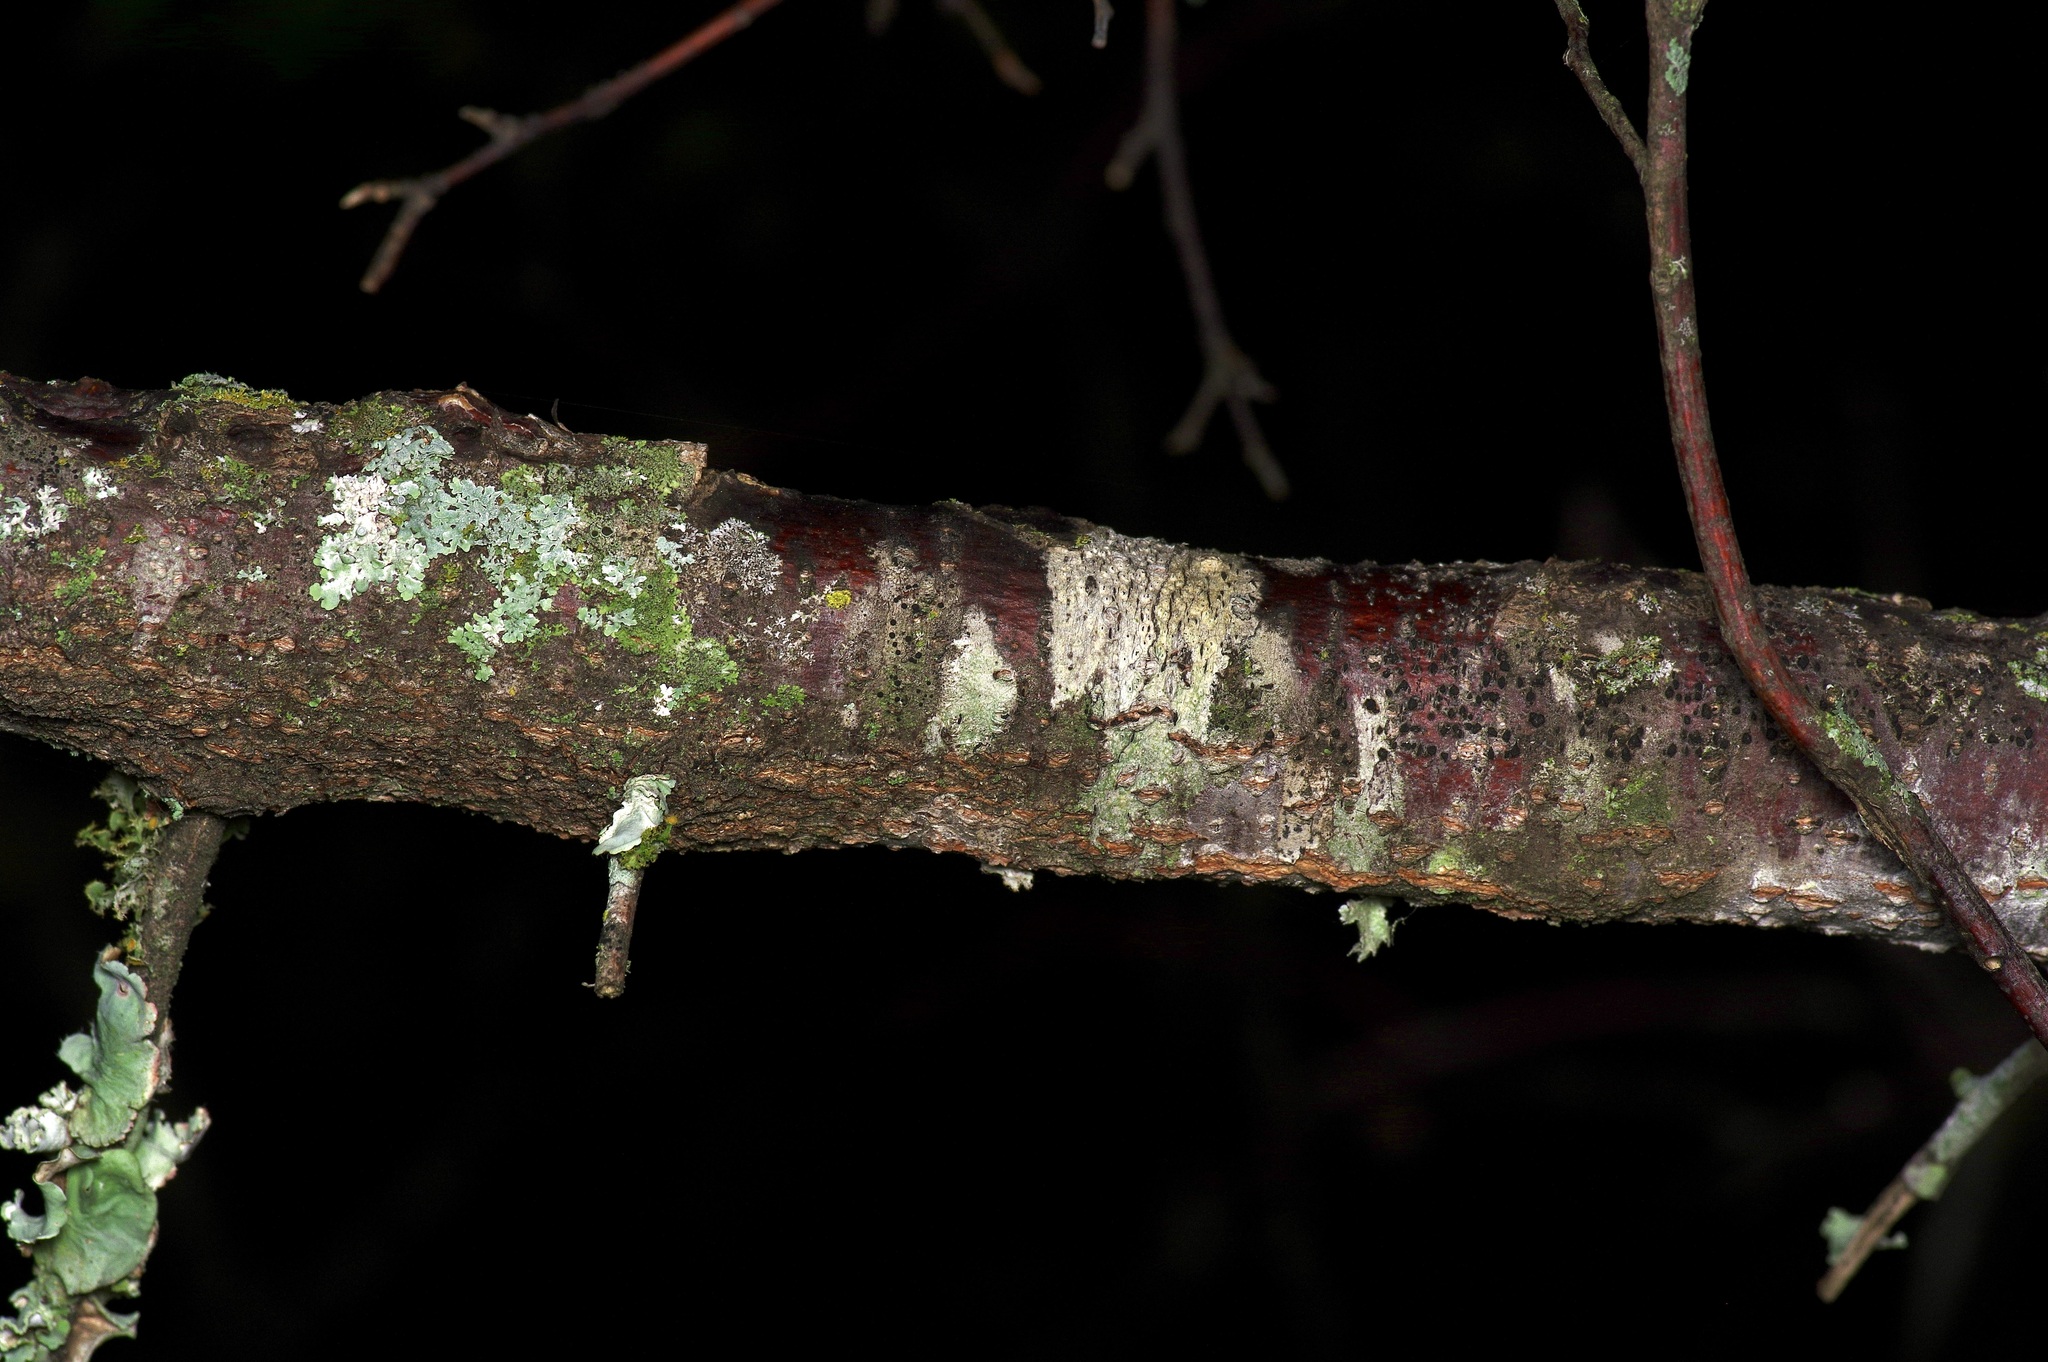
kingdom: Plantae
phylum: Tracheophyta
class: Magnoliopsida
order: Sapindales
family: Rutaceae
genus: Ptelea
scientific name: Ptelea trifoliata
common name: Common hop-tree
